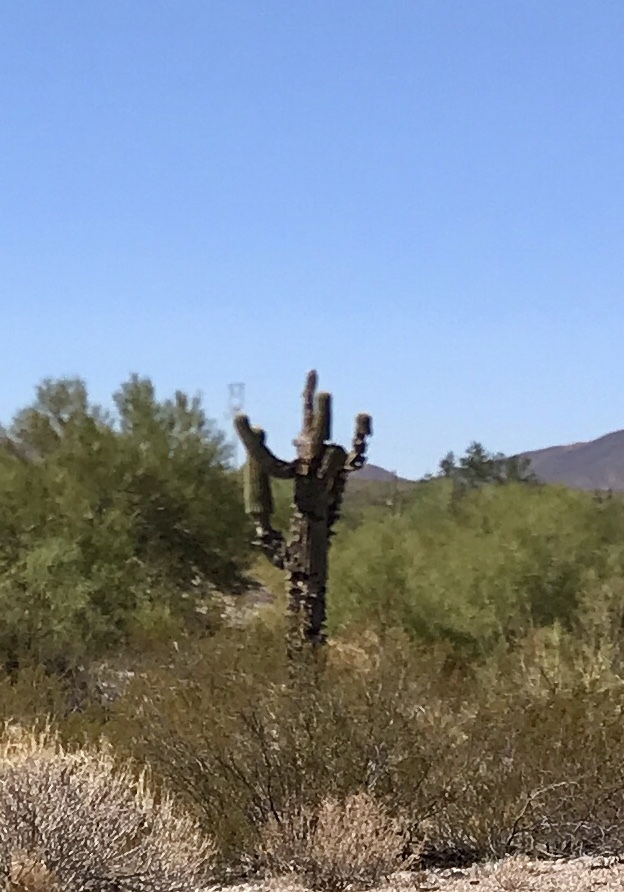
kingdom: Plantae
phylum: Tracheophyta
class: Magnoliopsida
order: Caryophyllales
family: Cactaceae
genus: Carnegiea
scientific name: Carnegiea gigantea
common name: Saguaro
